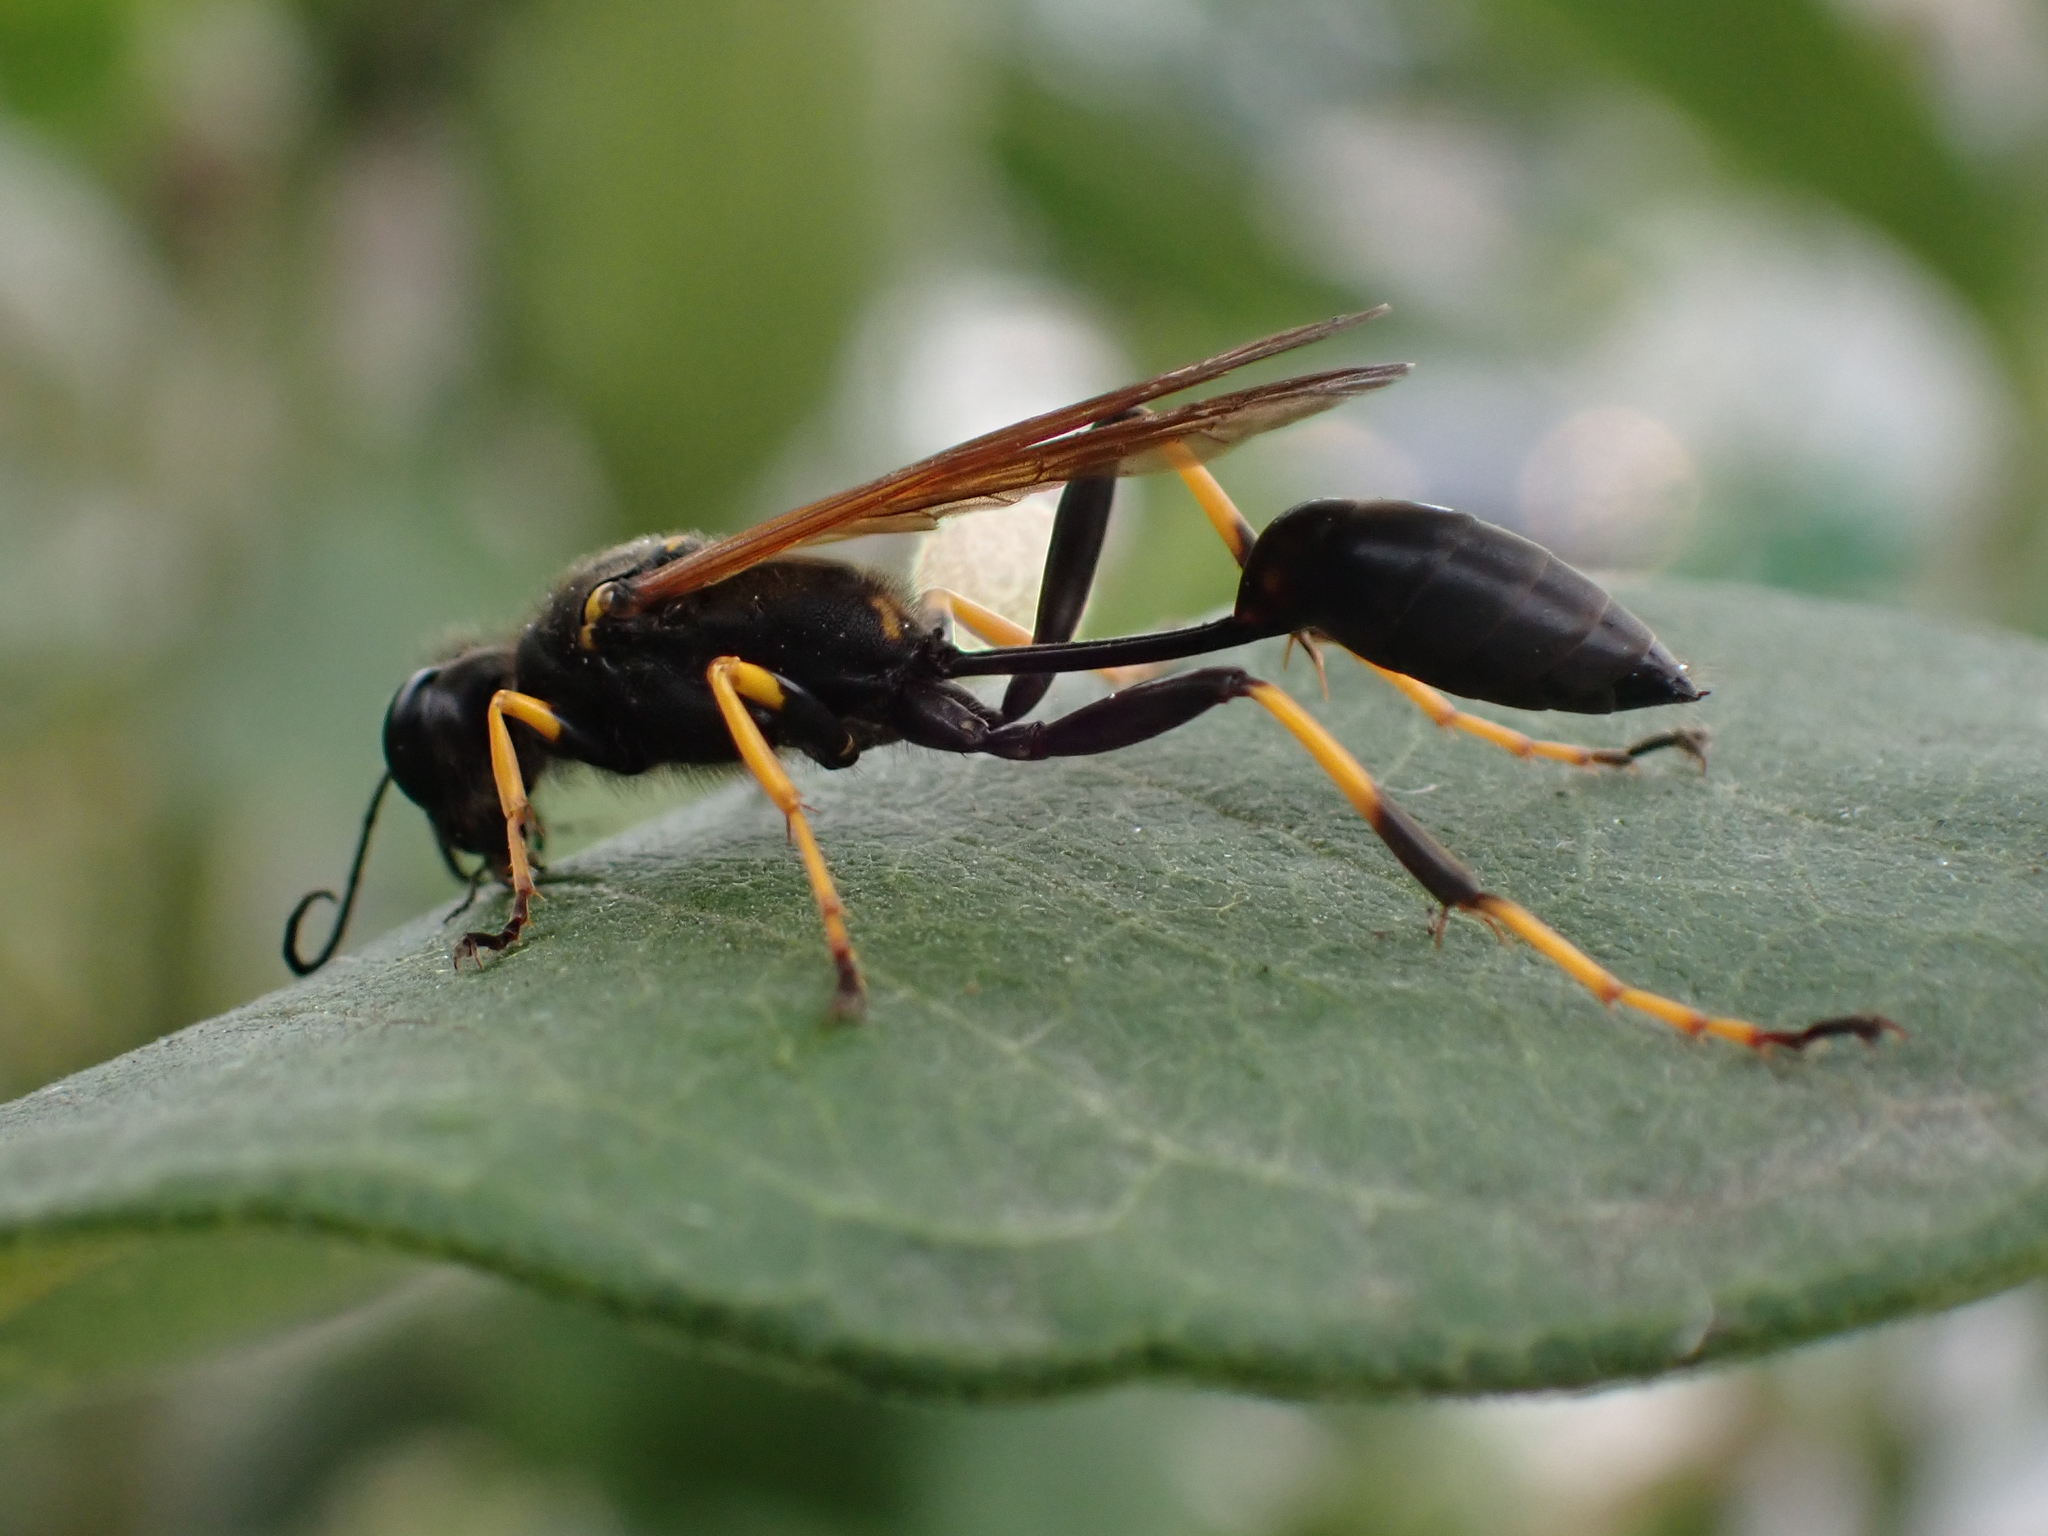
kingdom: Animalia
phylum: Arthropoda
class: Insecta
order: Hymenoptera
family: Sphecidae
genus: Sceliphron
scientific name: Sceliphron caementarium
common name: Mud dauber
